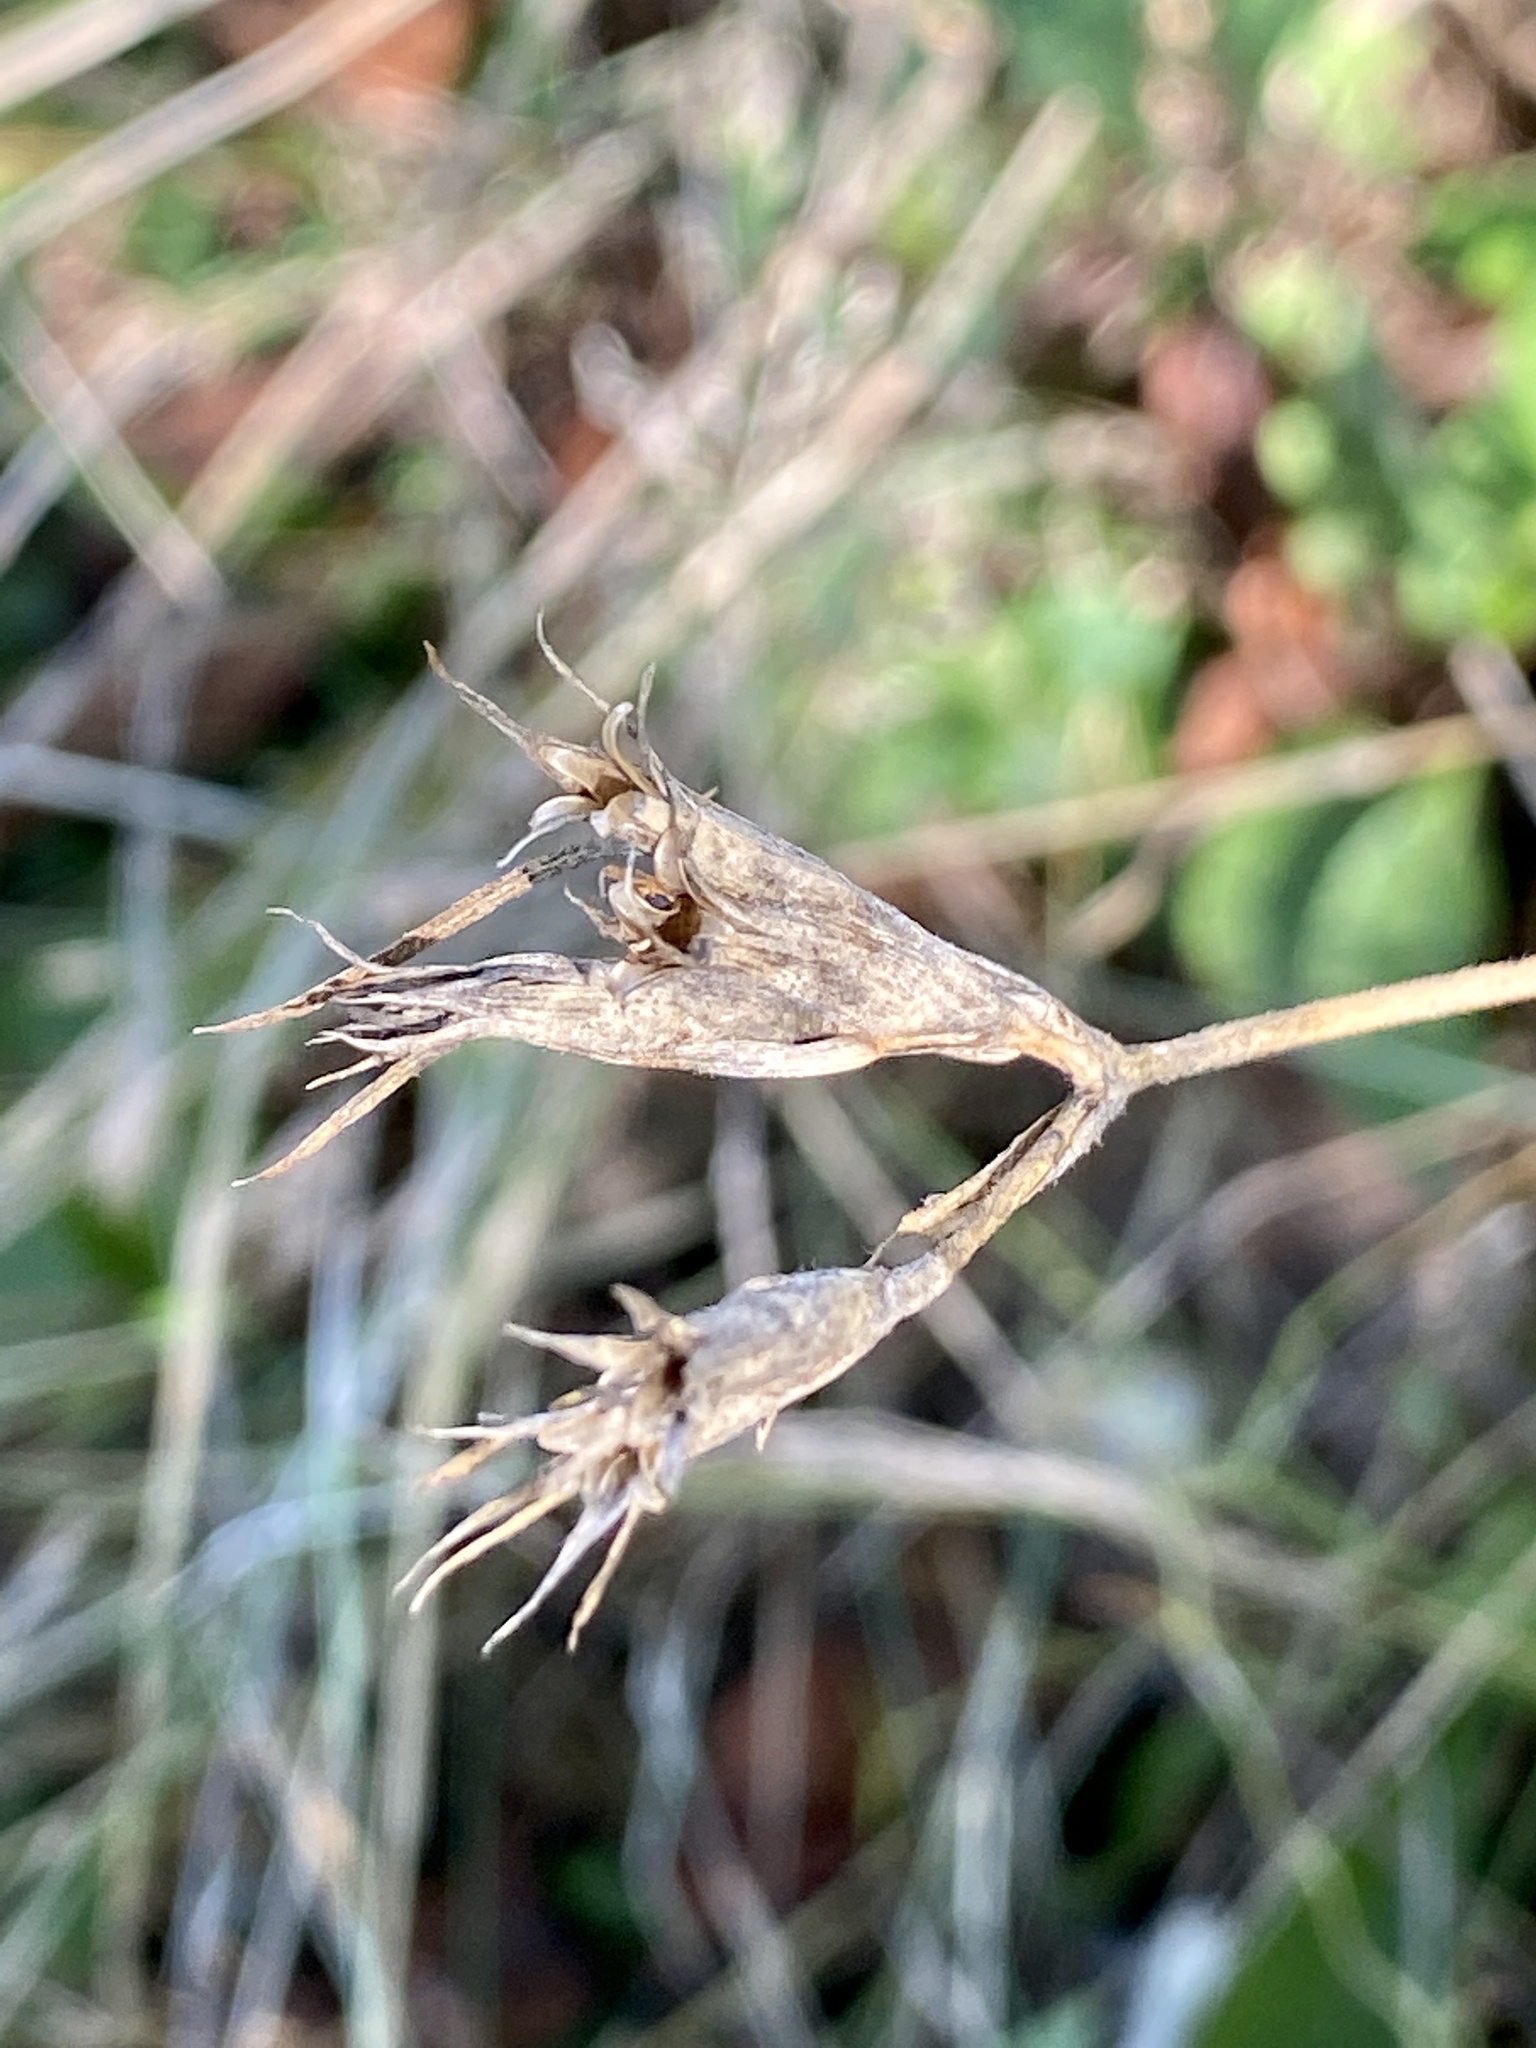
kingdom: Plantae
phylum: Tracheophyta
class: Magnoliopsida
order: Caryophyllales
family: Caryophyllaceae
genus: Dianthus
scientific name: Dianthus armeria
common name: Deptford pink
